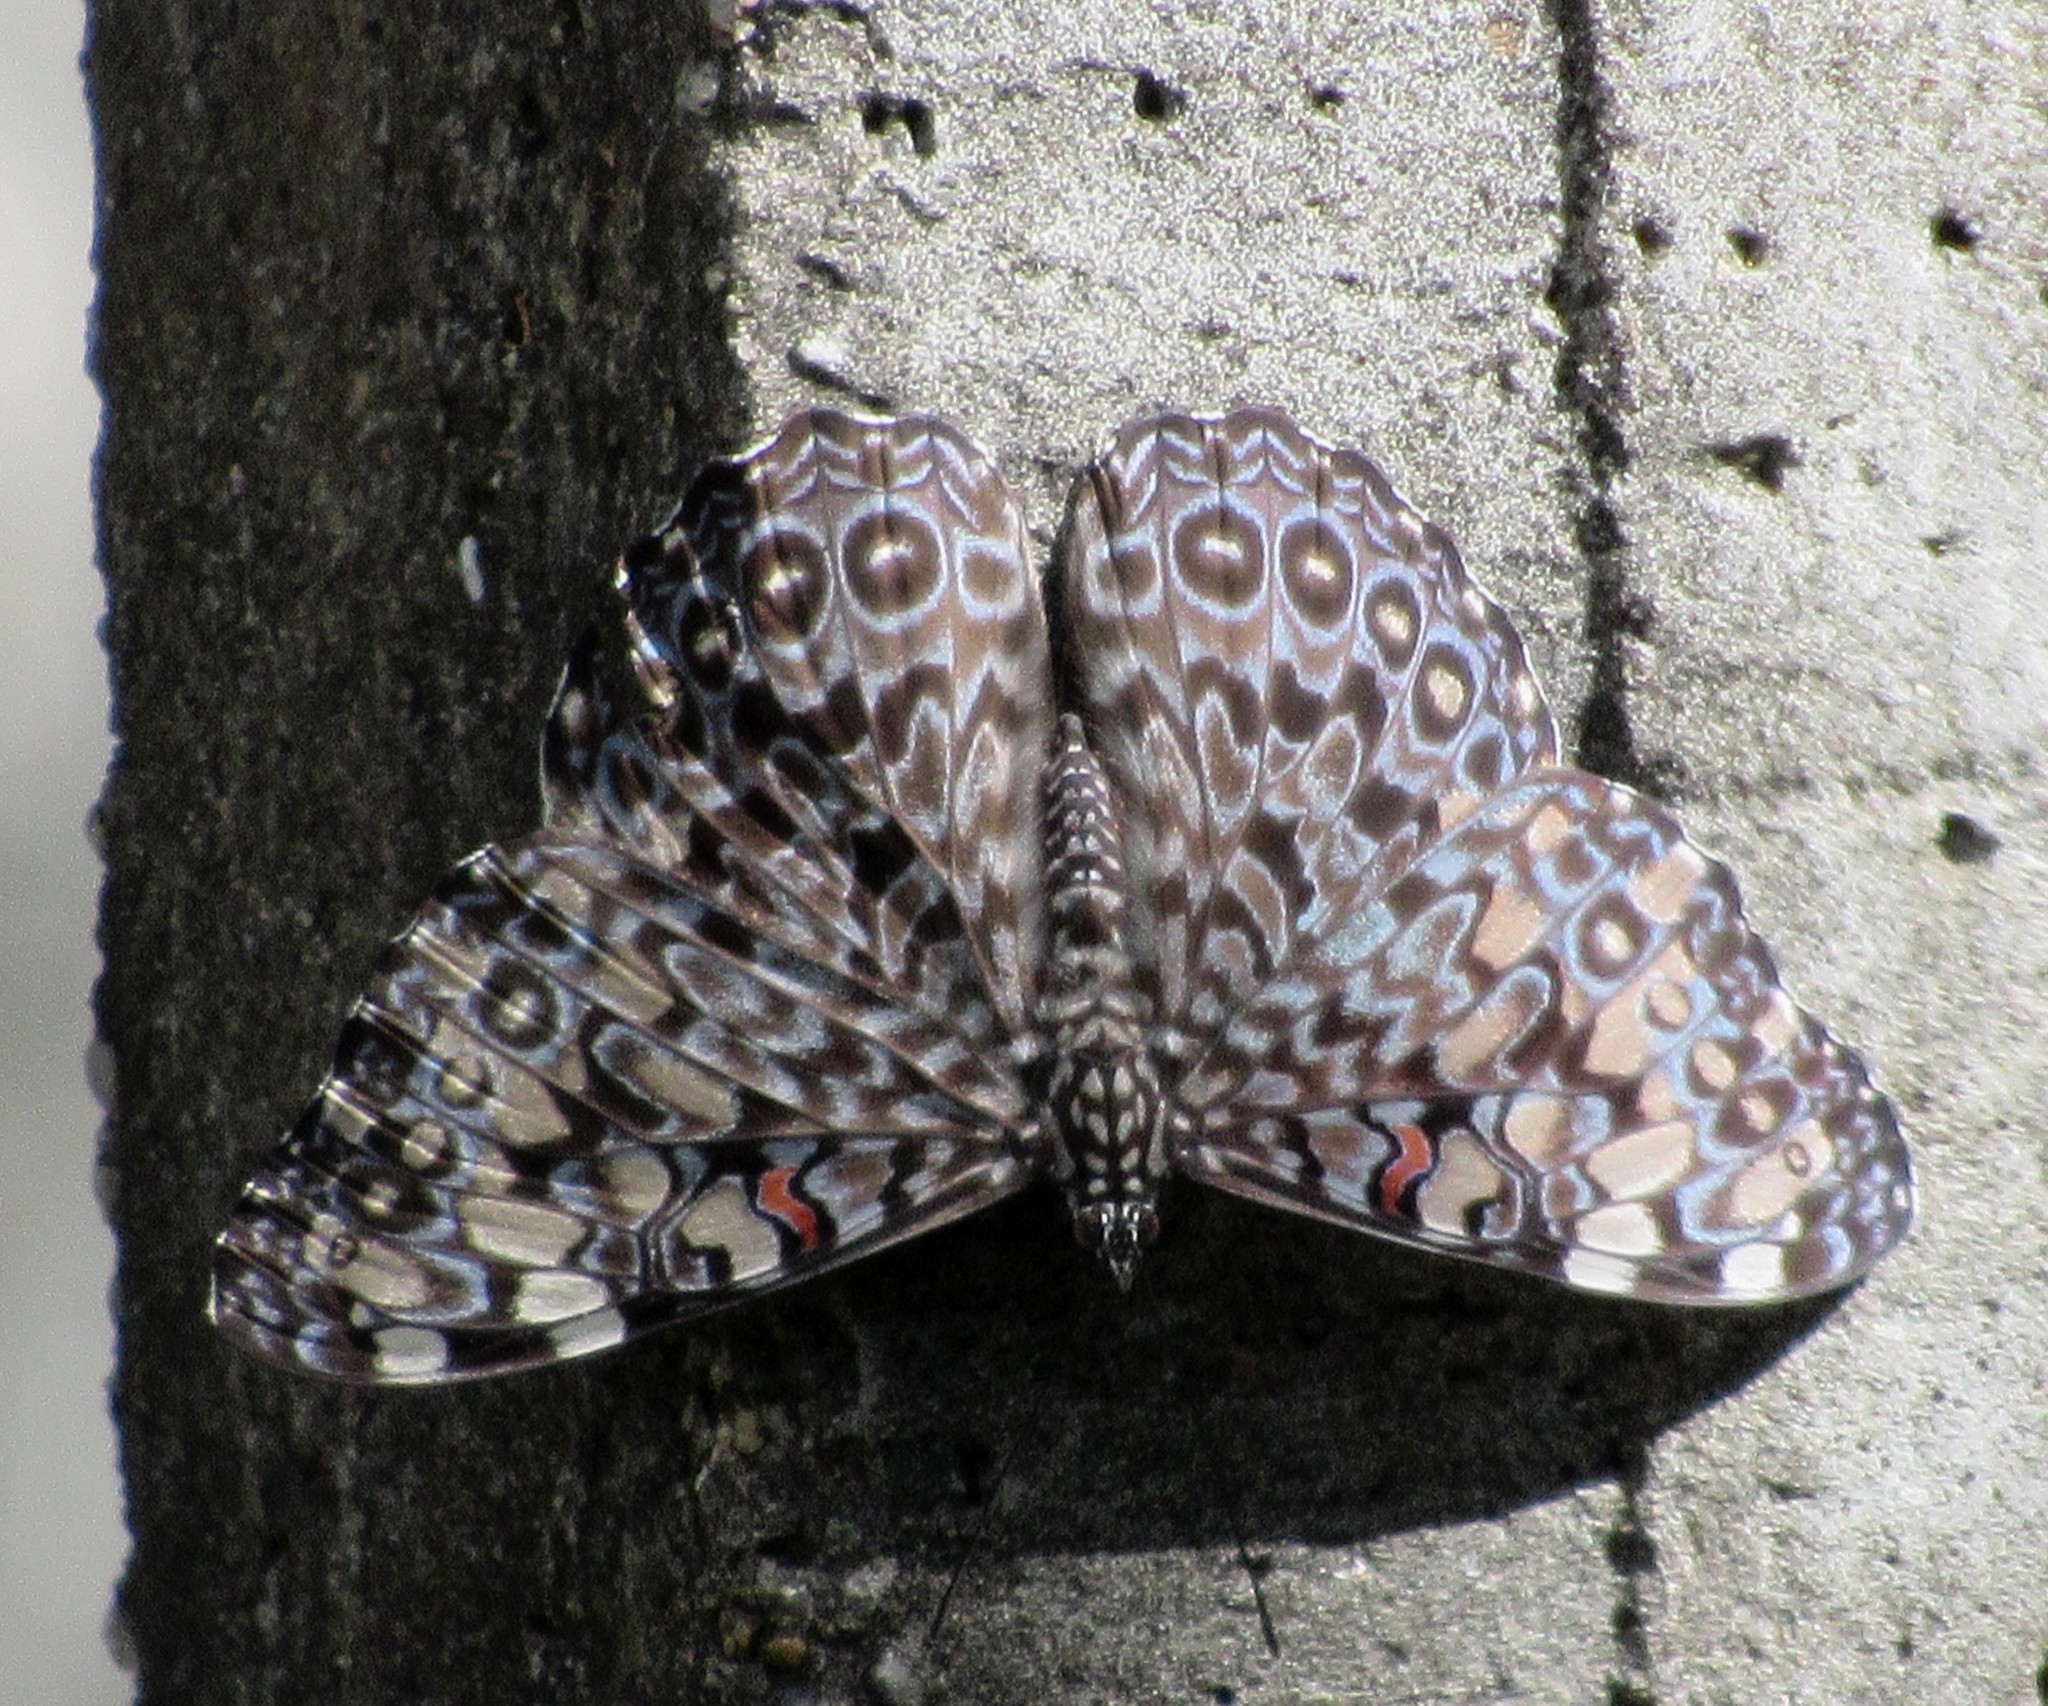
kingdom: Animalia
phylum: Arthropoda
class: Insecta
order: Lepidoptera
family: Nymphalidae
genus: Hamadryas
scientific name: Hamadryas feronia
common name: Variable cracker
